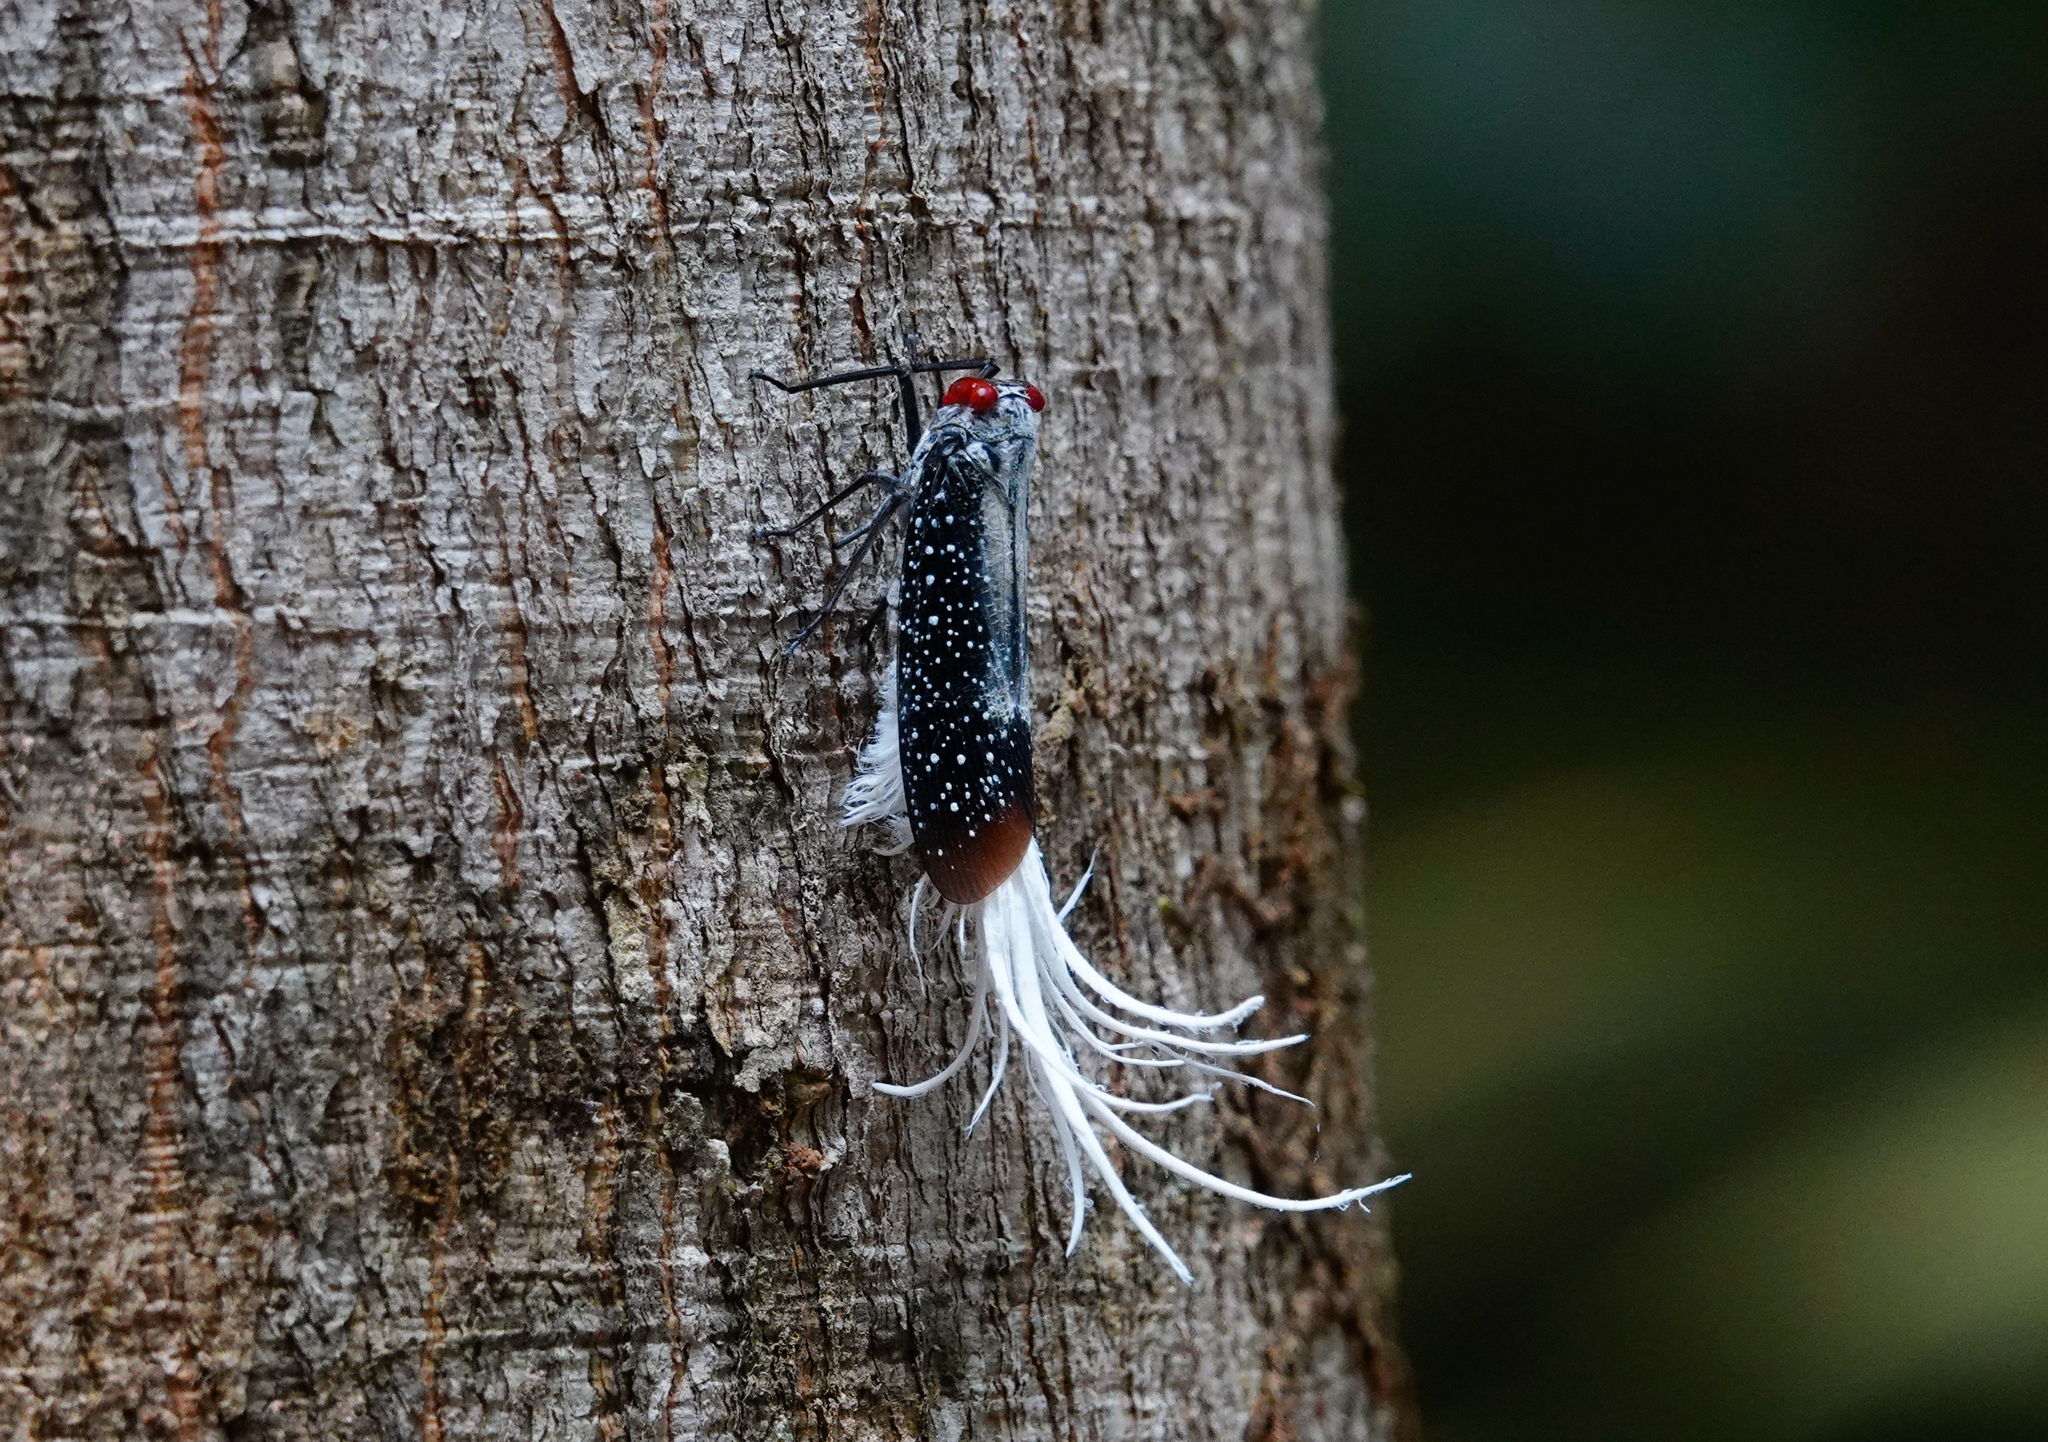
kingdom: Animalia
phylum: Arthropoda
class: Insecta
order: Hemiptera
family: Fulgoridae
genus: Lystra
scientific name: Lystra lanata
